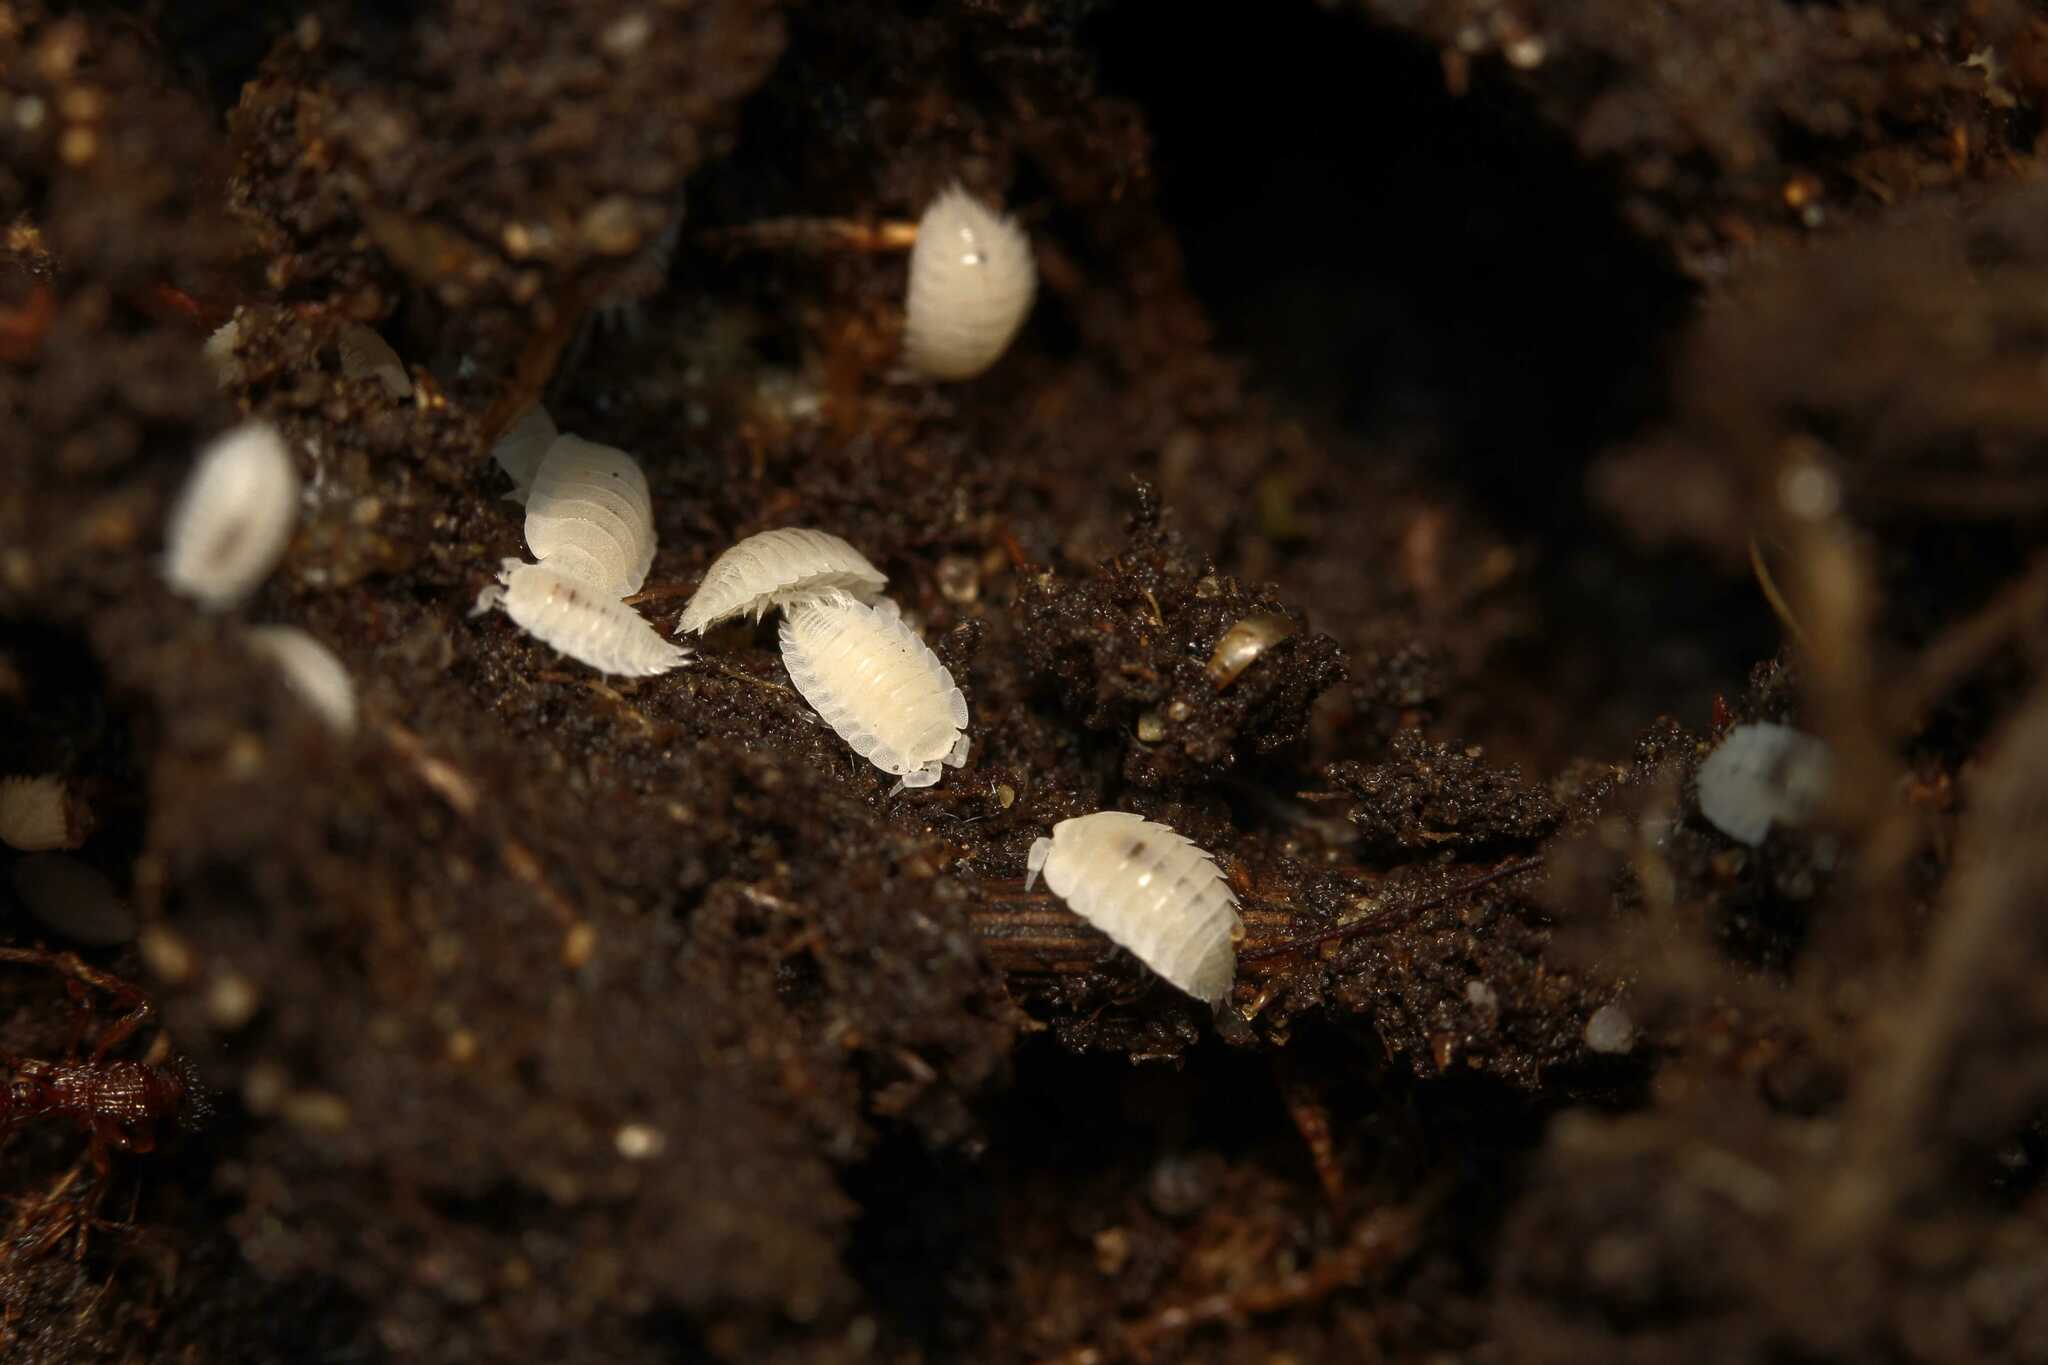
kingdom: Animalia
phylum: Arthropoda
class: Malacostraca
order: Isopoda
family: Platyarthridae
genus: Platyarthrus
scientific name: Platyarthrus hoffmannseggii
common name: Ant woodlouse
